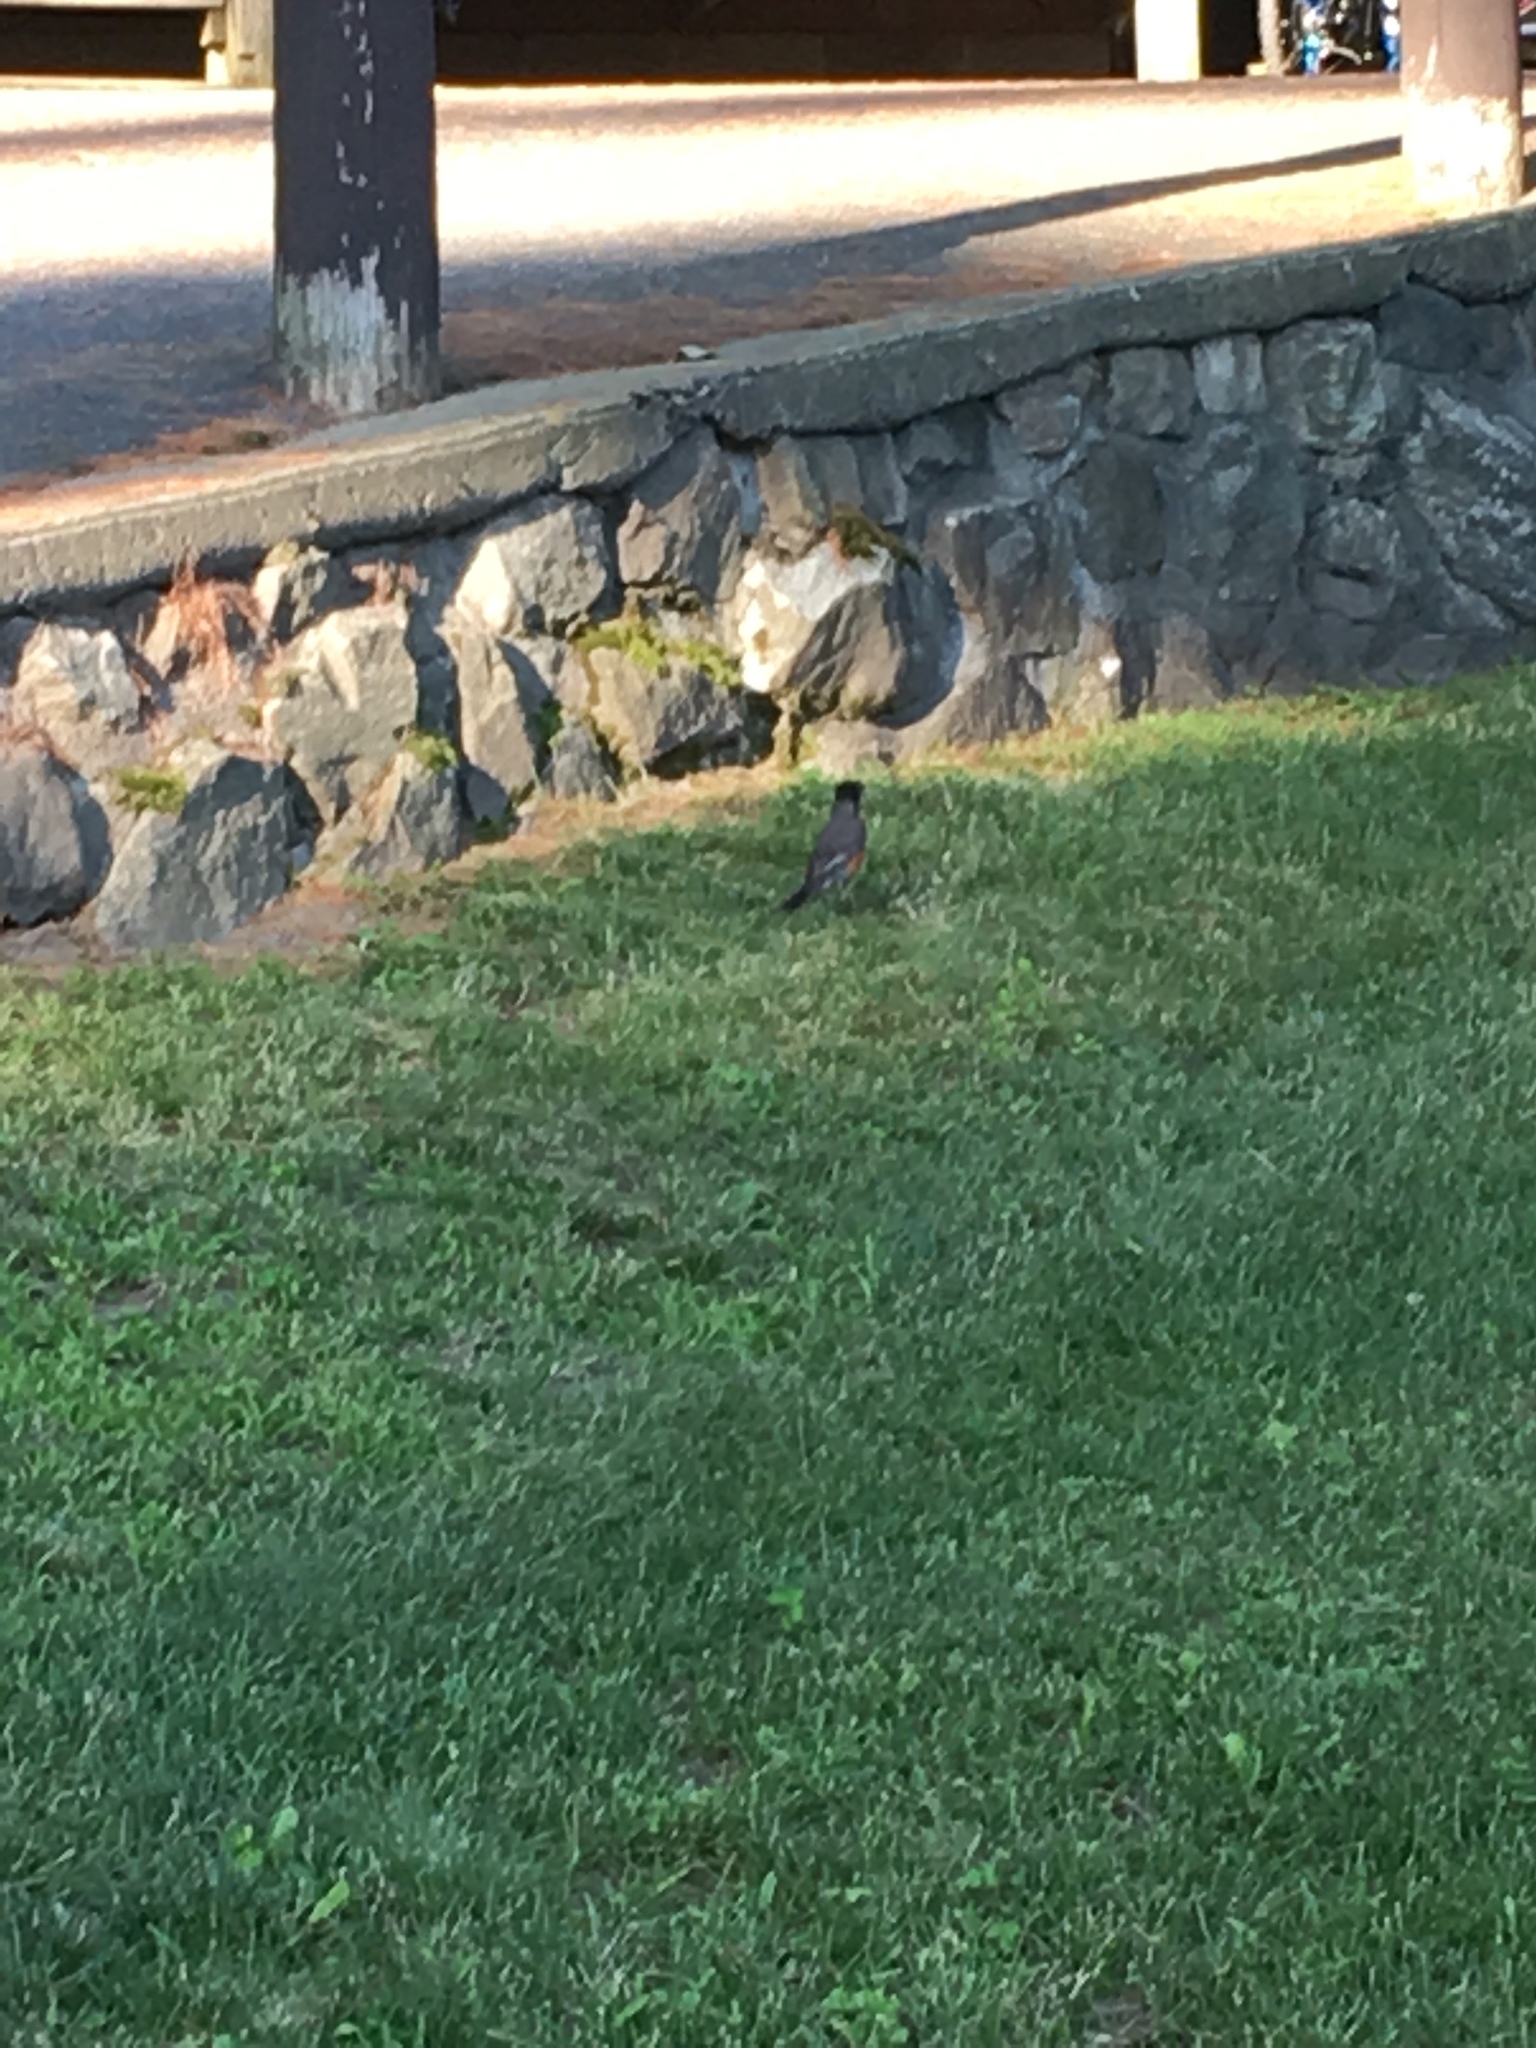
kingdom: Animalia
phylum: Chordata
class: Aves
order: Passeriformes
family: Turdidae
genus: Turdus
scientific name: Turdus migratorius
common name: American robin
